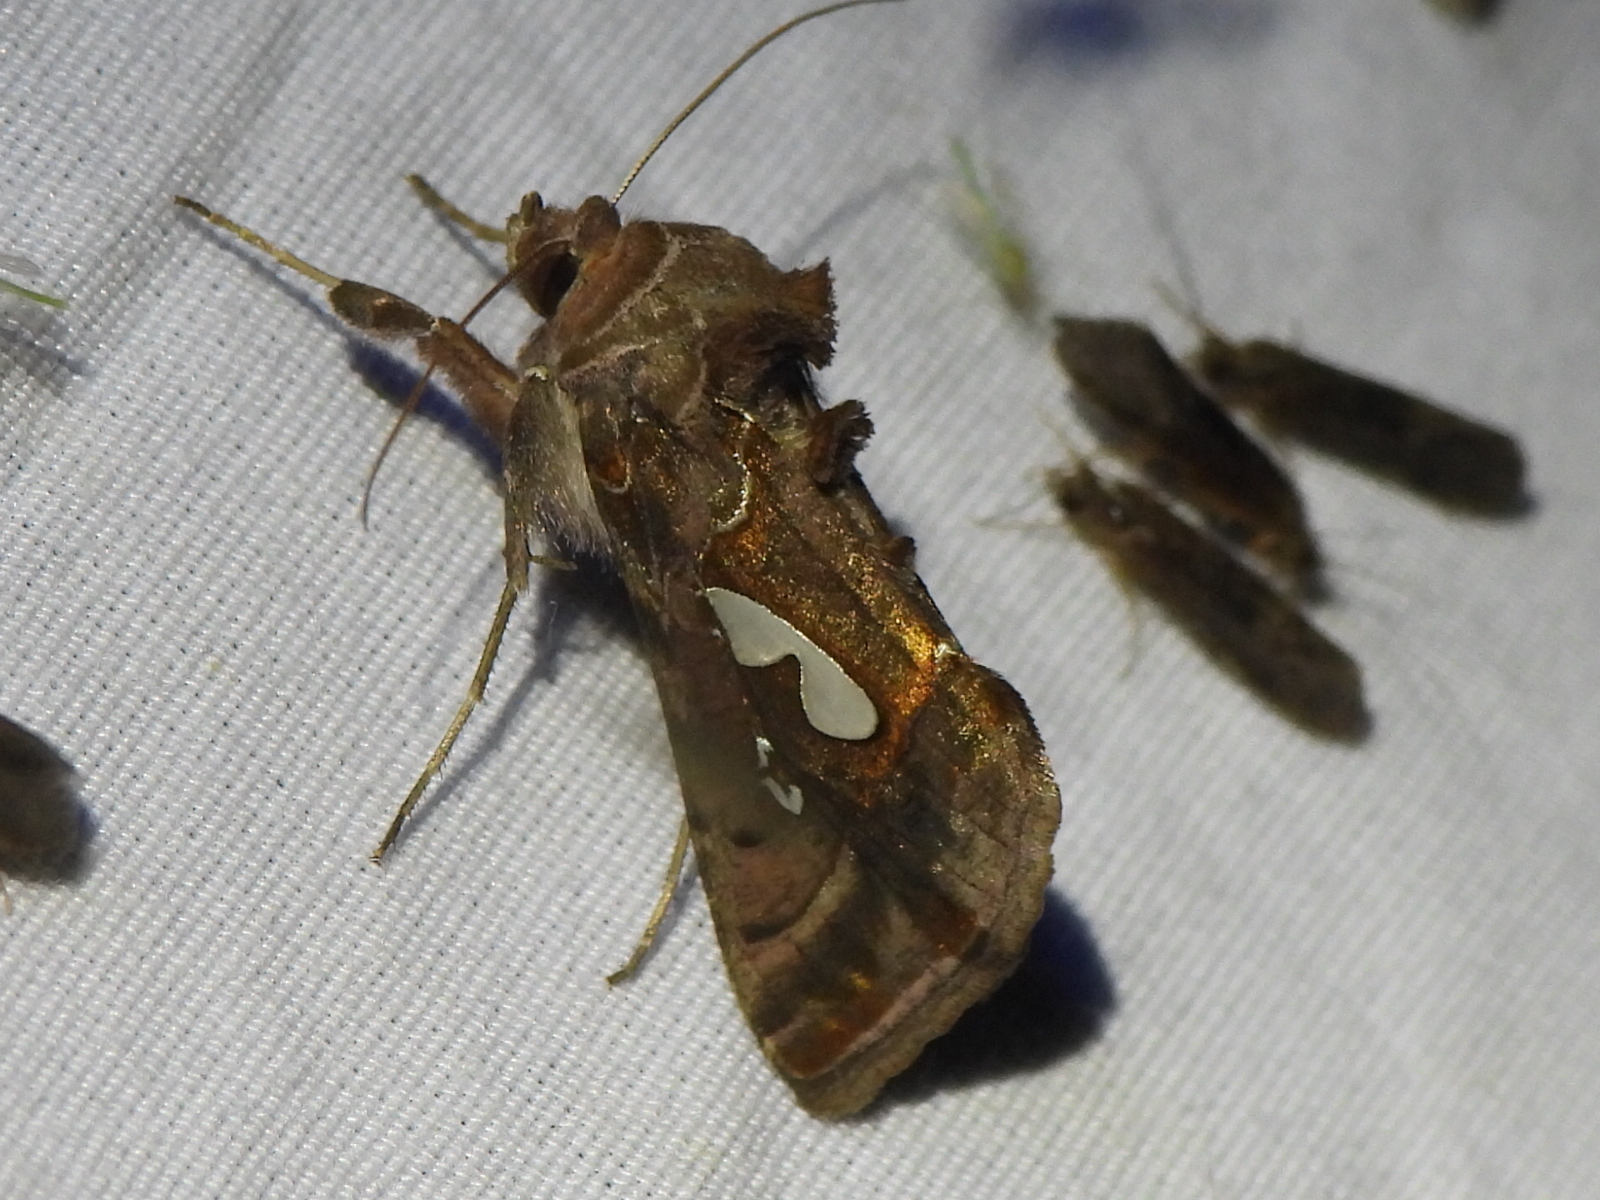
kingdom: Animalia
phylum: Arthropoda
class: Insecta
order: Lepidoptera
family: Noctuidae
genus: Megalographa
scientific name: Megalographa biloba
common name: Cutworm
